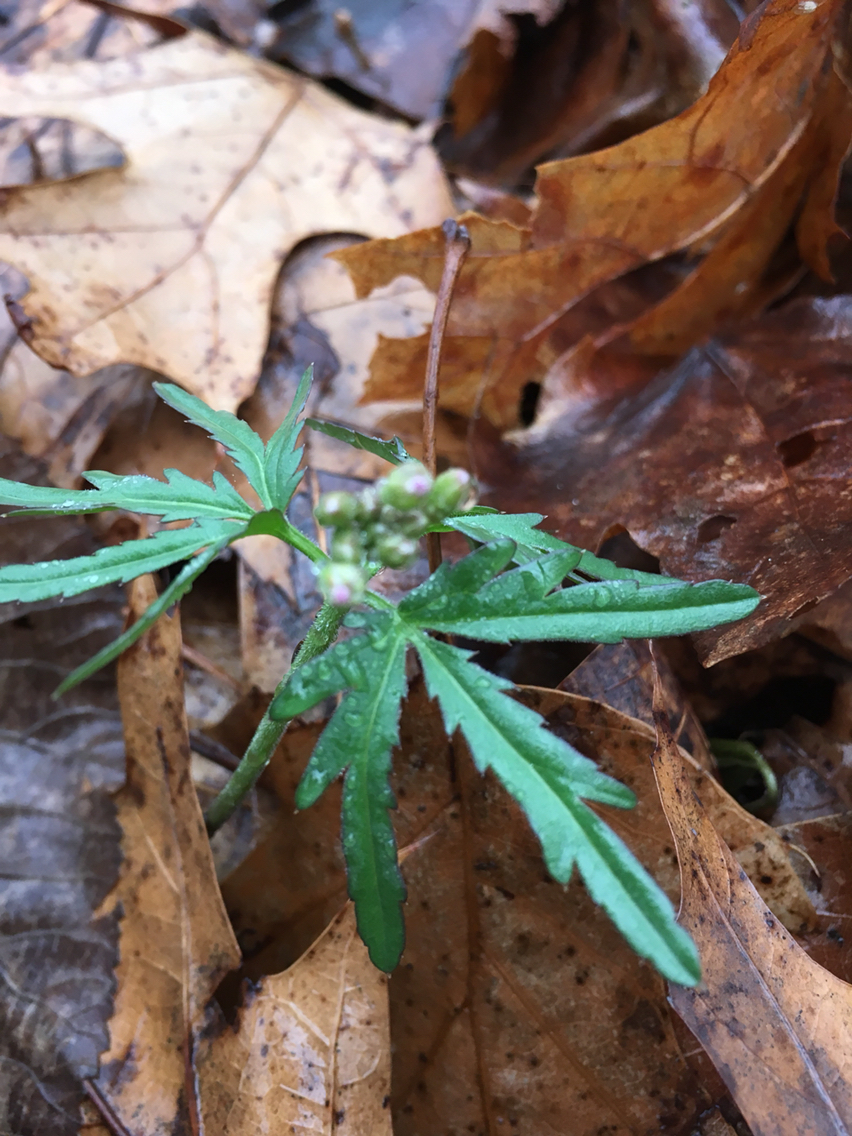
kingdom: Plantae
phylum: Tracheophyta
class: Magnoliopsida
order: Brassicales
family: Brassicaceae
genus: Cardamine
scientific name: Cardamine concatenata
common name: Cut-leaf toothcup
